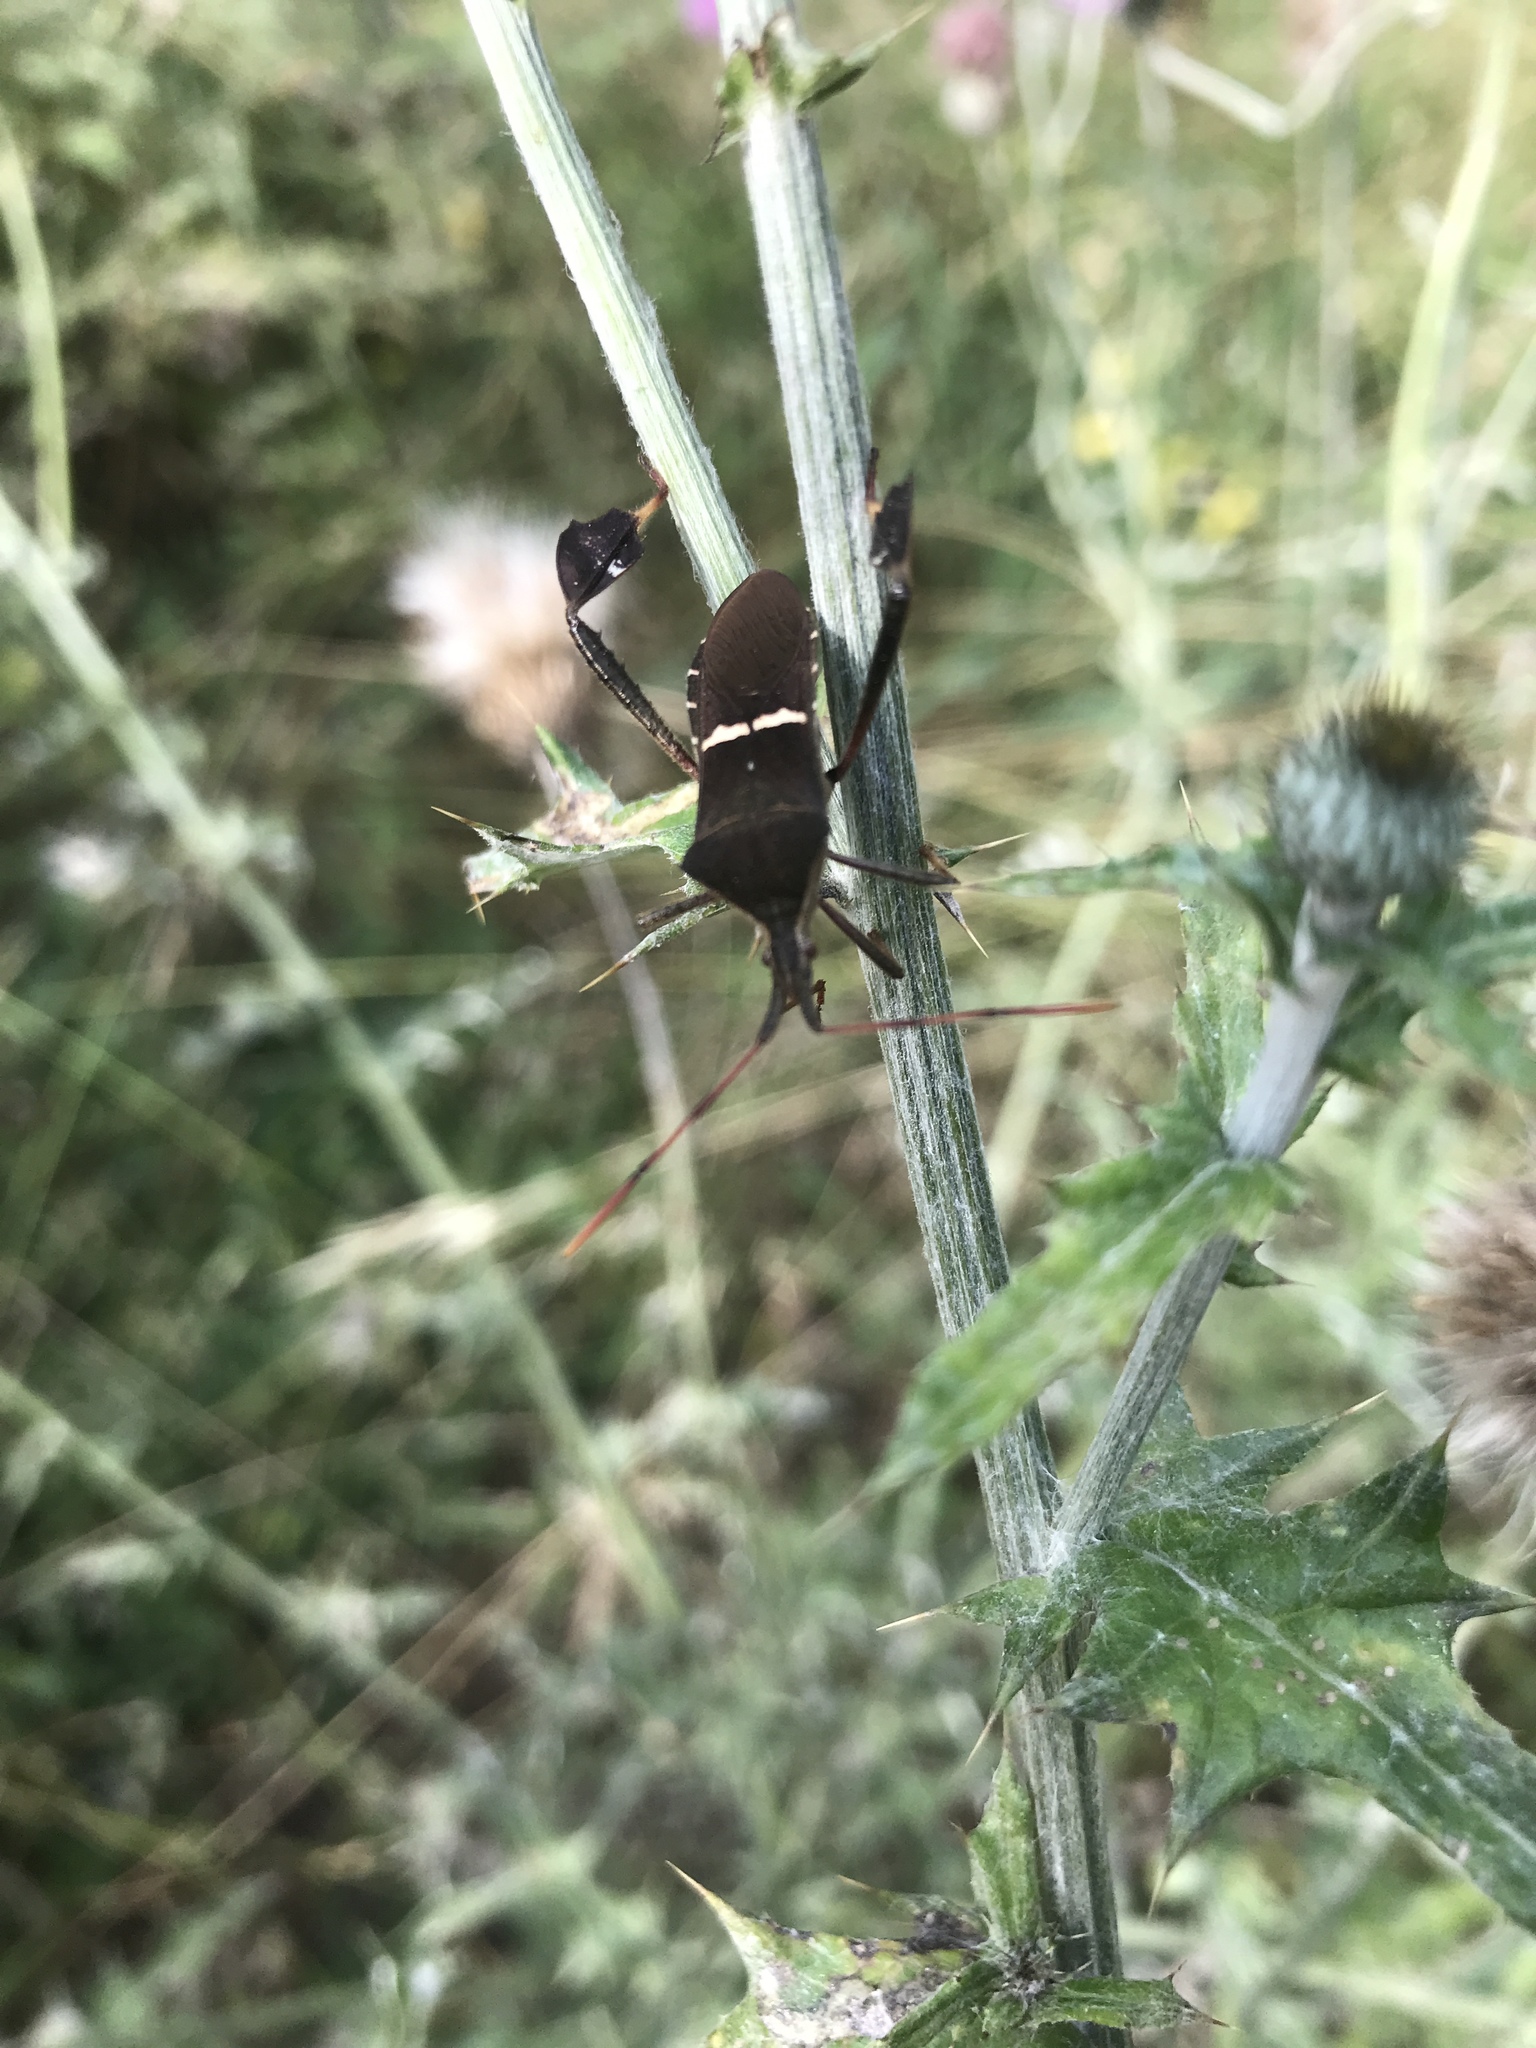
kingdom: Animalia
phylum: Arthropoda
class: Insecta
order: Hemiptera
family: Coreidae
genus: Leptoglossus
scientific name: Leptoglossus phyllopus
